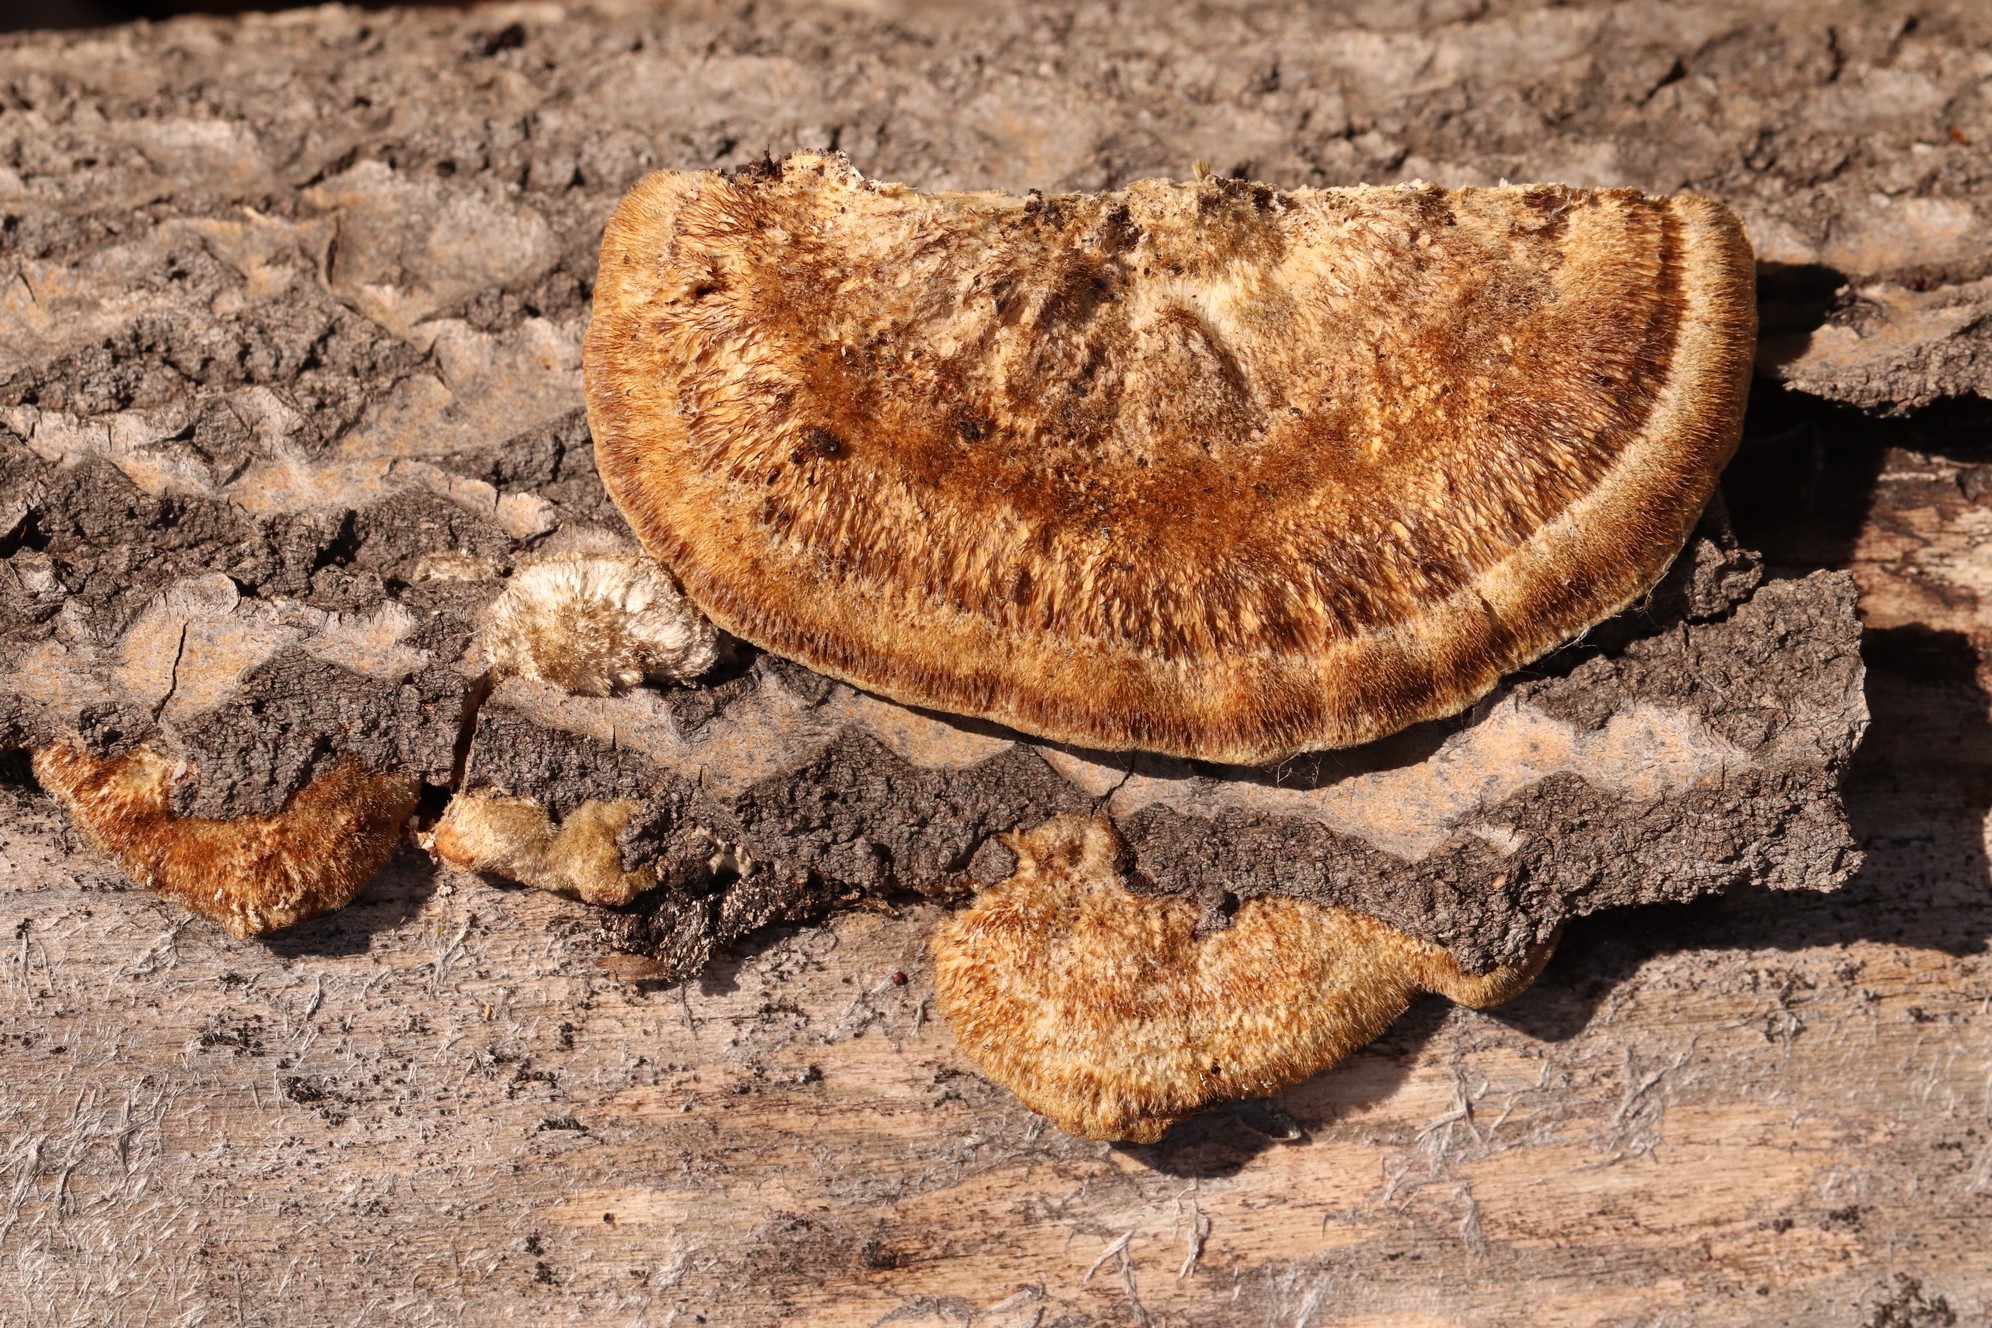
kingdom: Fungi
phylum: Basidiomycota
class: Agaricomycetes
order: Polyporales
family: Polyporaceae
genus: Trametes
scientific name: Trametes trogii
